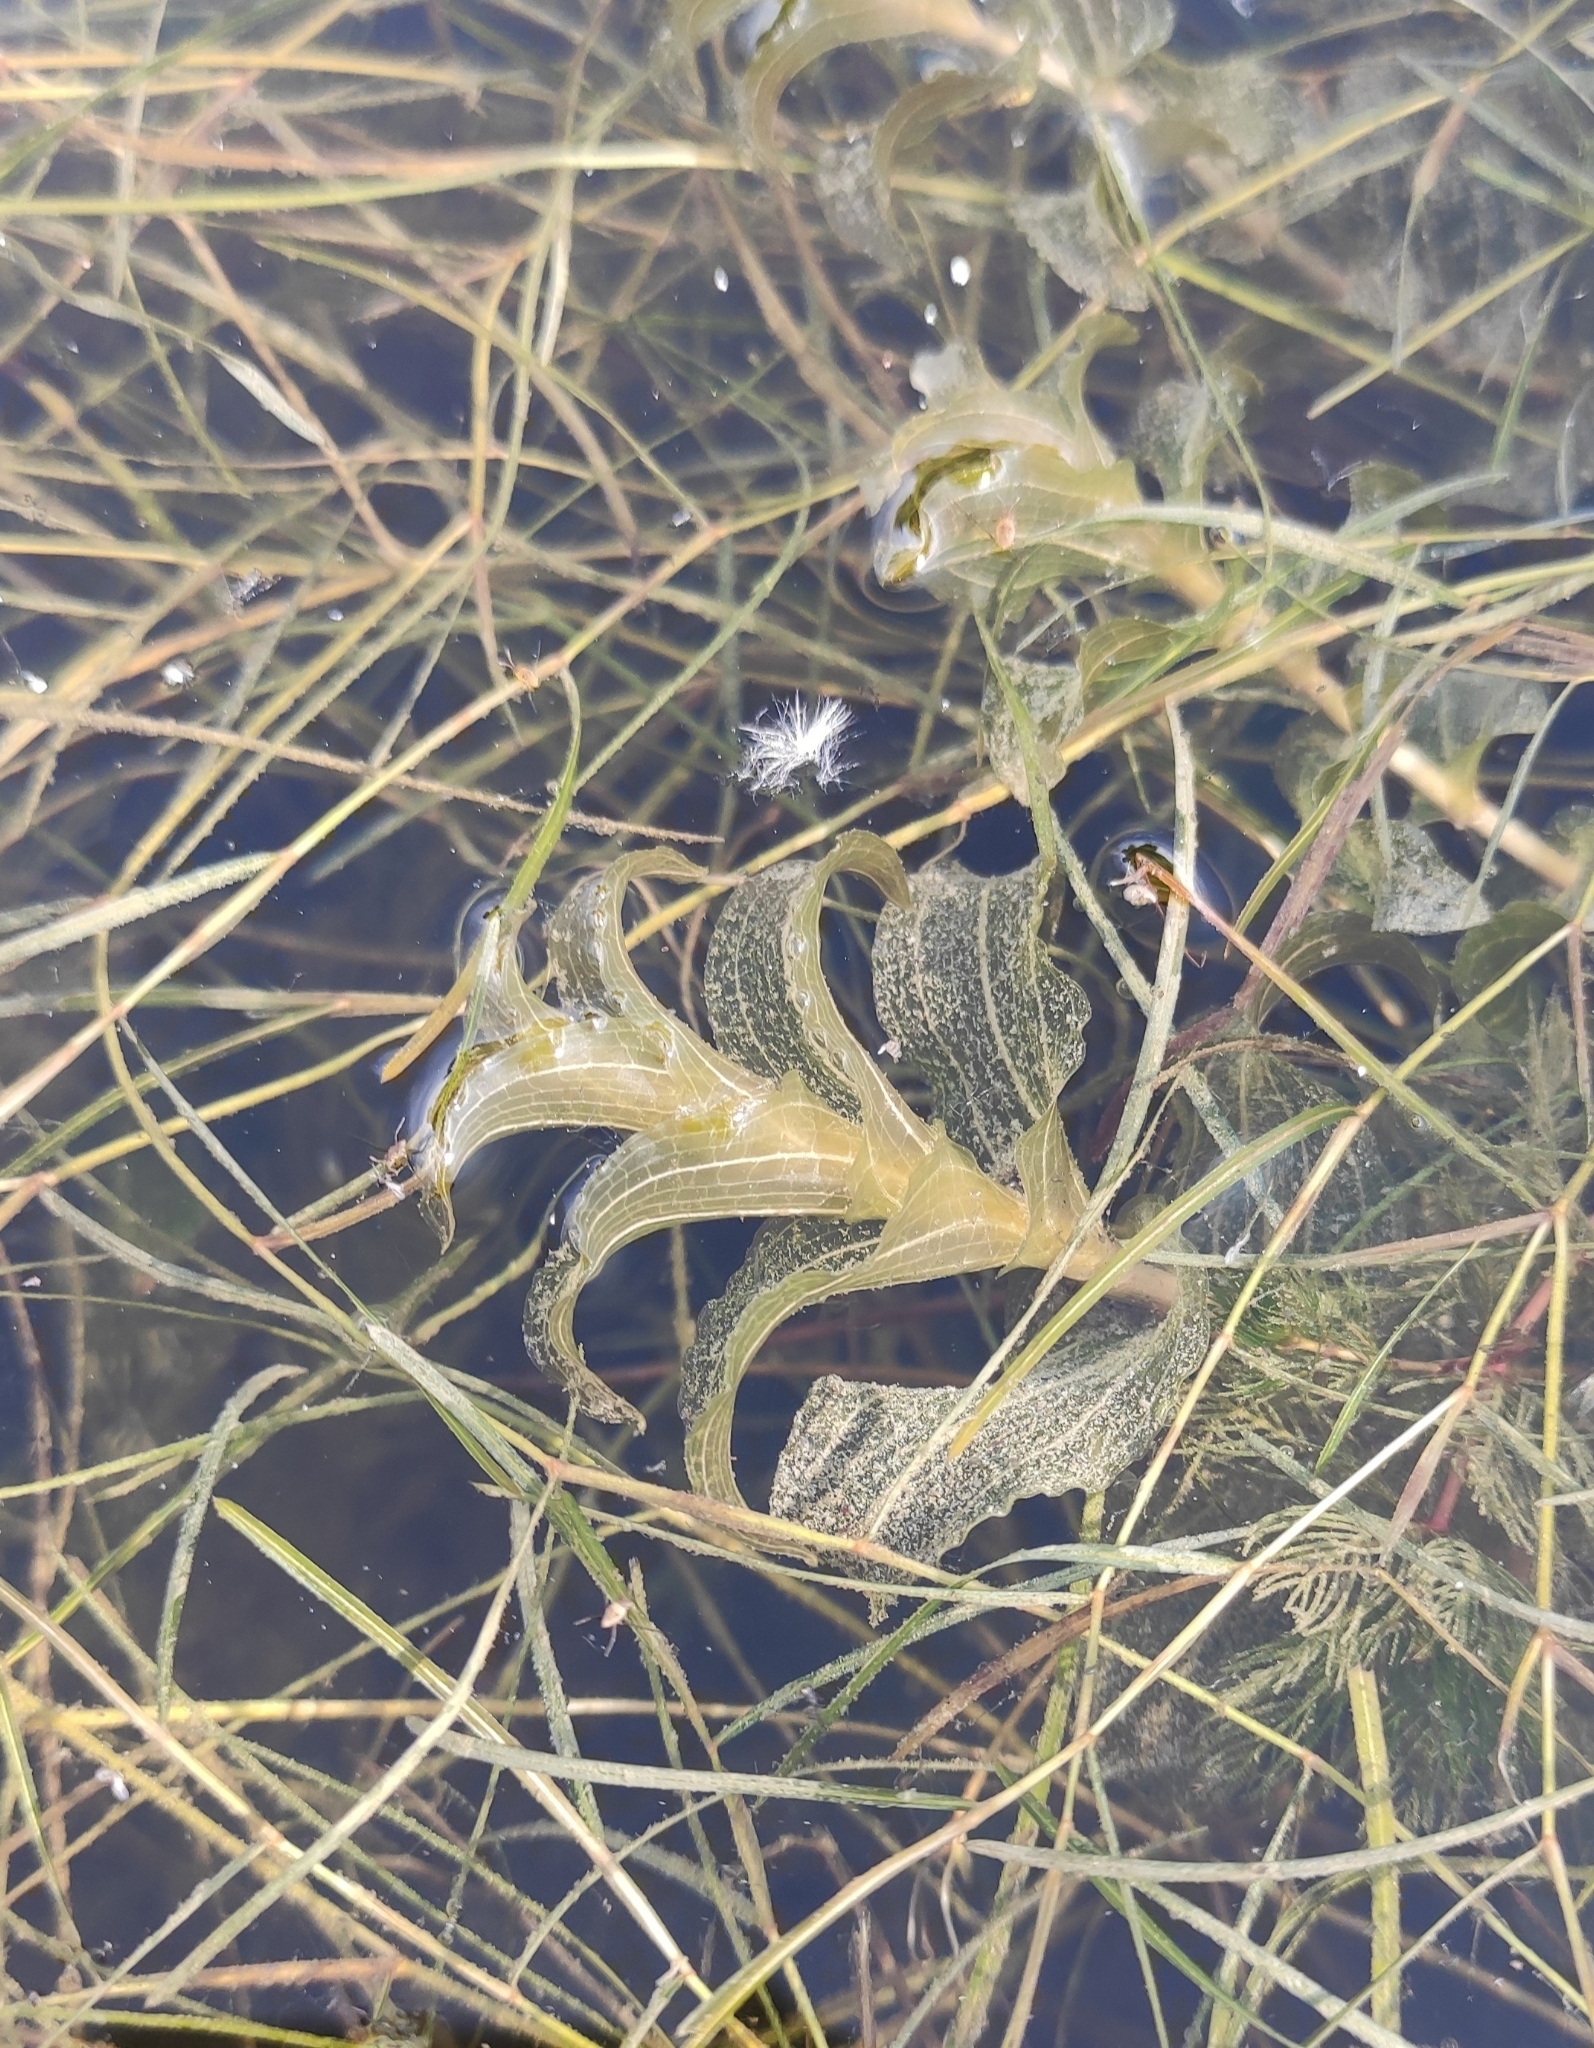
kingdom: Plantae
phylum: Tracheophyta
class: Liliopsida
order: Alismatales
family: Potamogetonaceae
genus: Potamogeton
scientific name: Potamogeton perfoliatus
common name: Perfoliate pondweed
